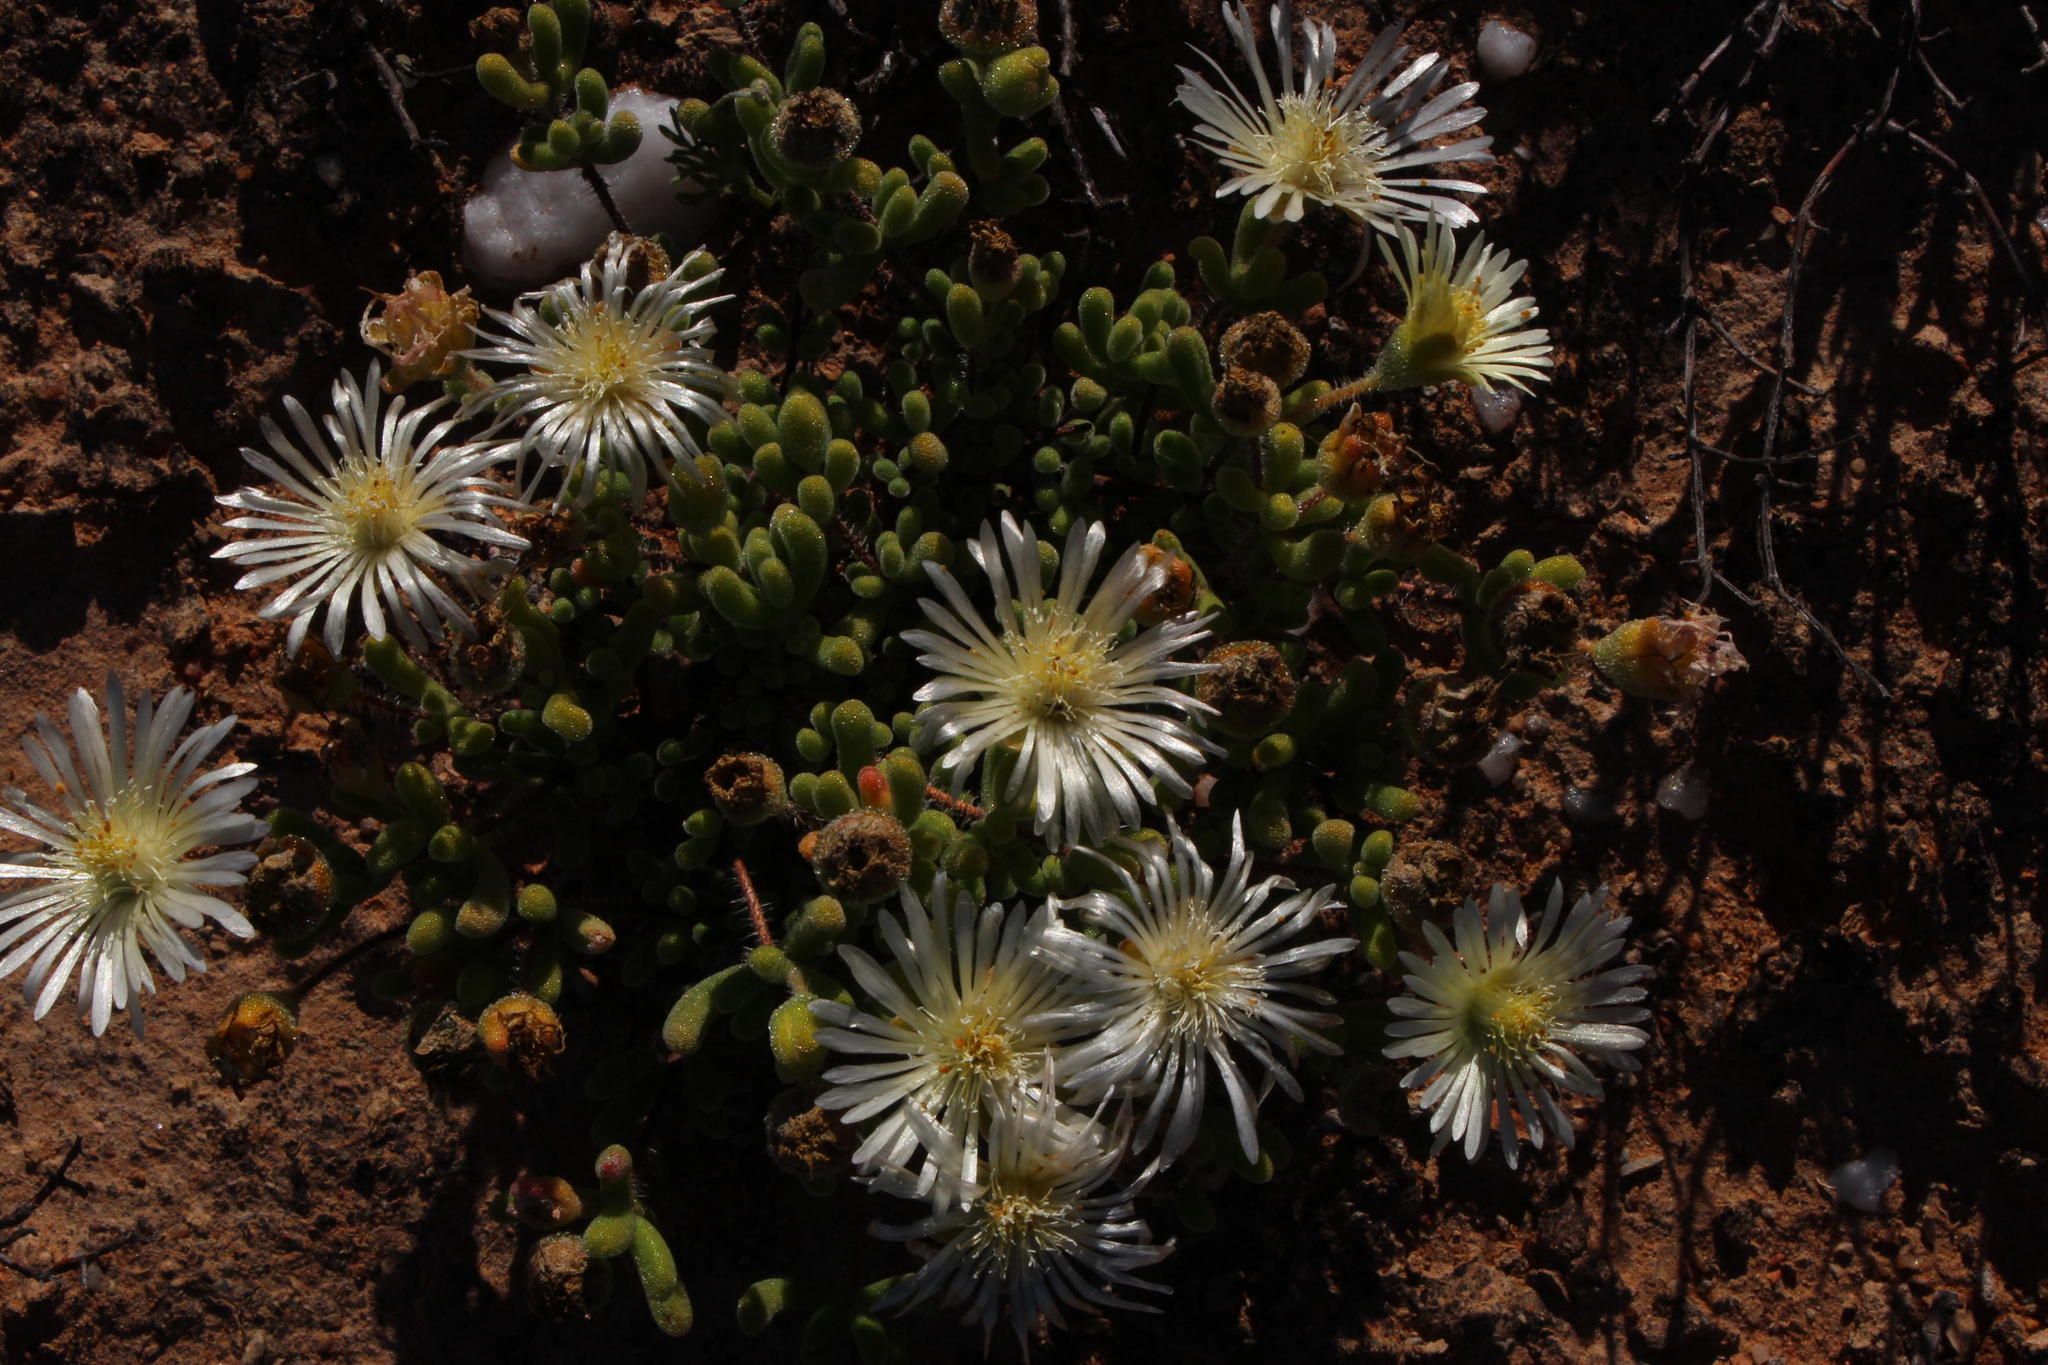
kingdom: Plantae
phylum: Tracheophyta
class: Magnoliopsida
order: Caryophyllales
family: Aizoaceae
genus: Drosanthemum
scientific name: Drosanthemum schoenlandianum
